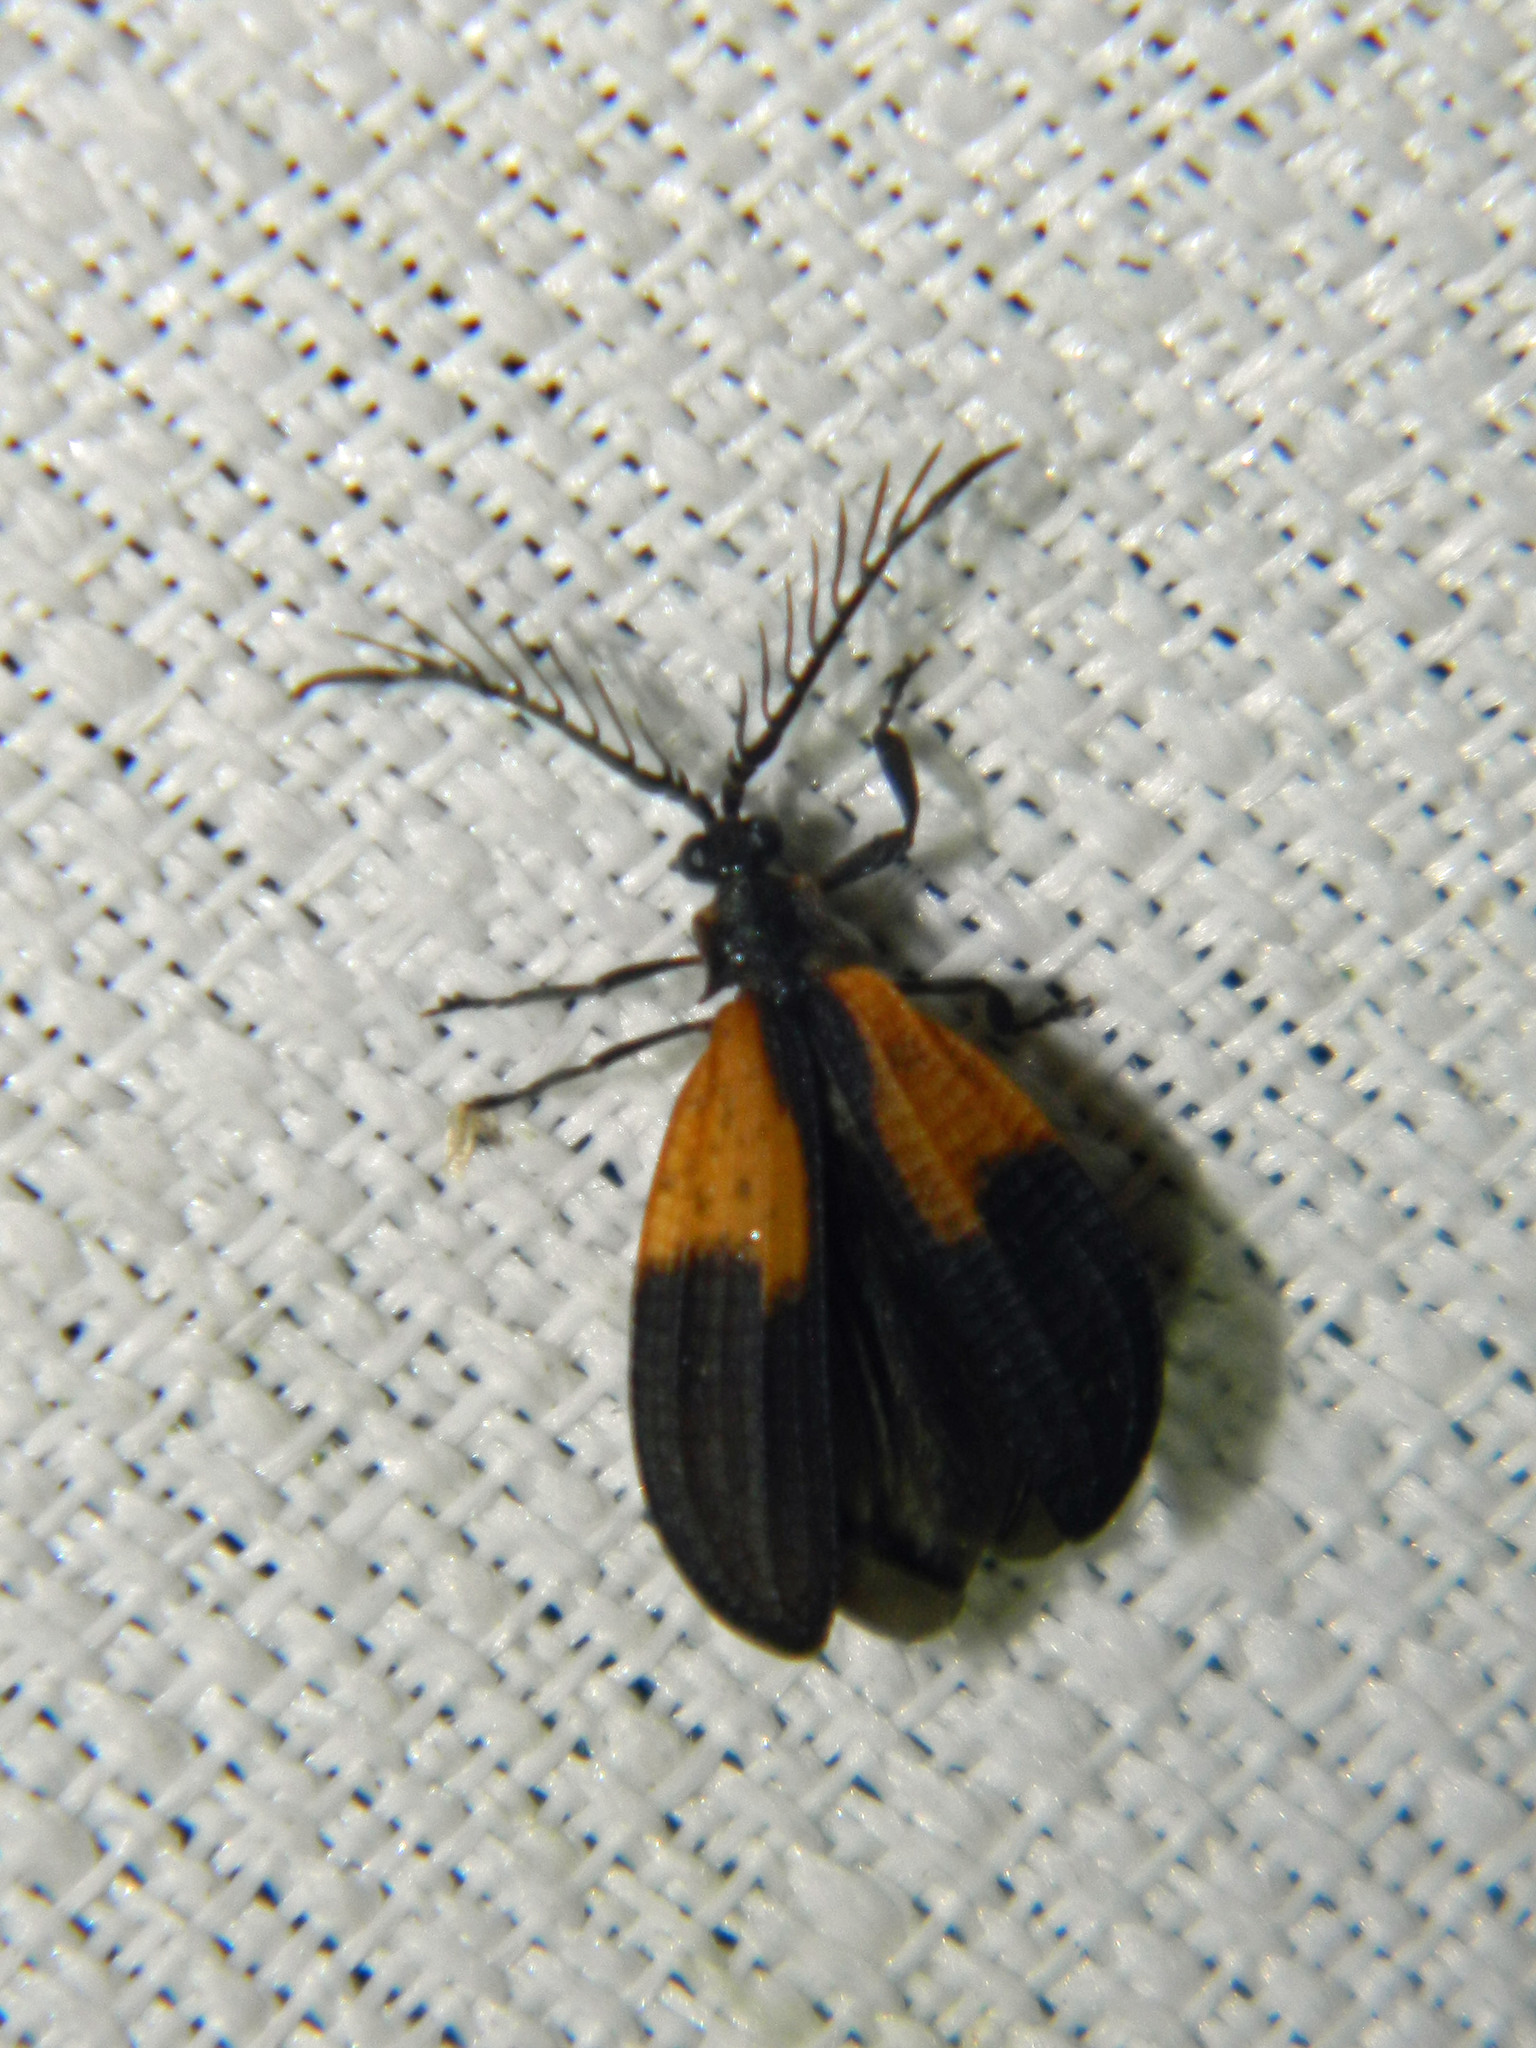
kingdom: Animalia
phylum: Arthropoda
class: Insecta
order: Coleoptera
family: Lycidae
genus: Caenia
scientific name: Caenia dimidiata
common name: Terminal net-winged beetle
